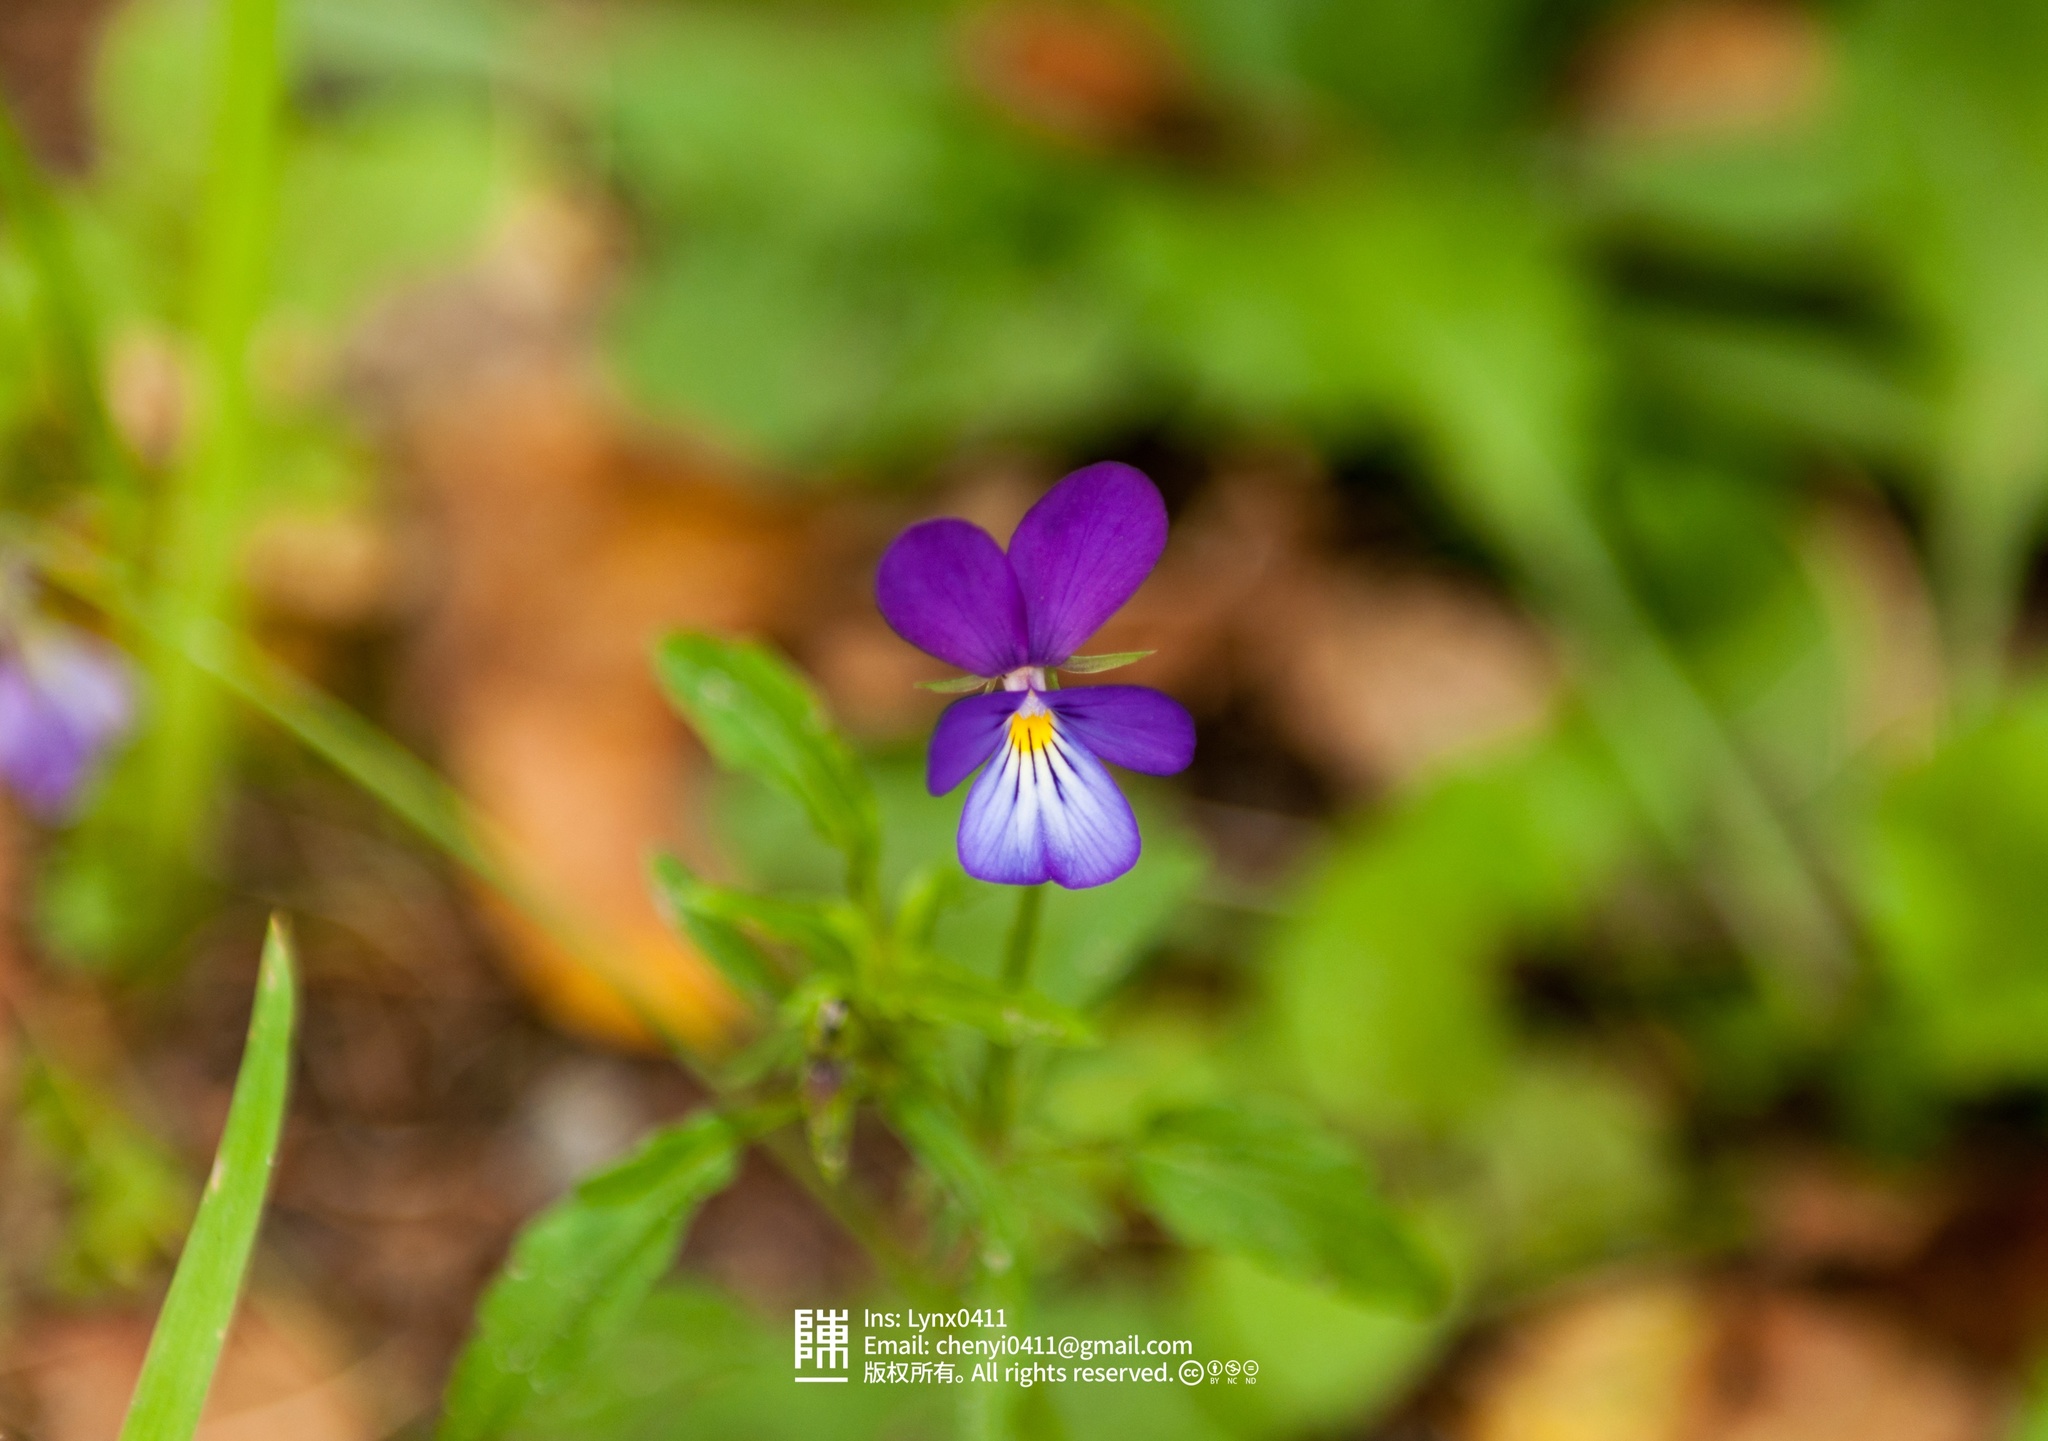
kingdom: Plantae
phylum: Tracheophyta
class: Magnoliopsida
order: Malpighiales
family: Violaceae
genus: Viola
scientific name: Viola tricolor
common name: Pansy
